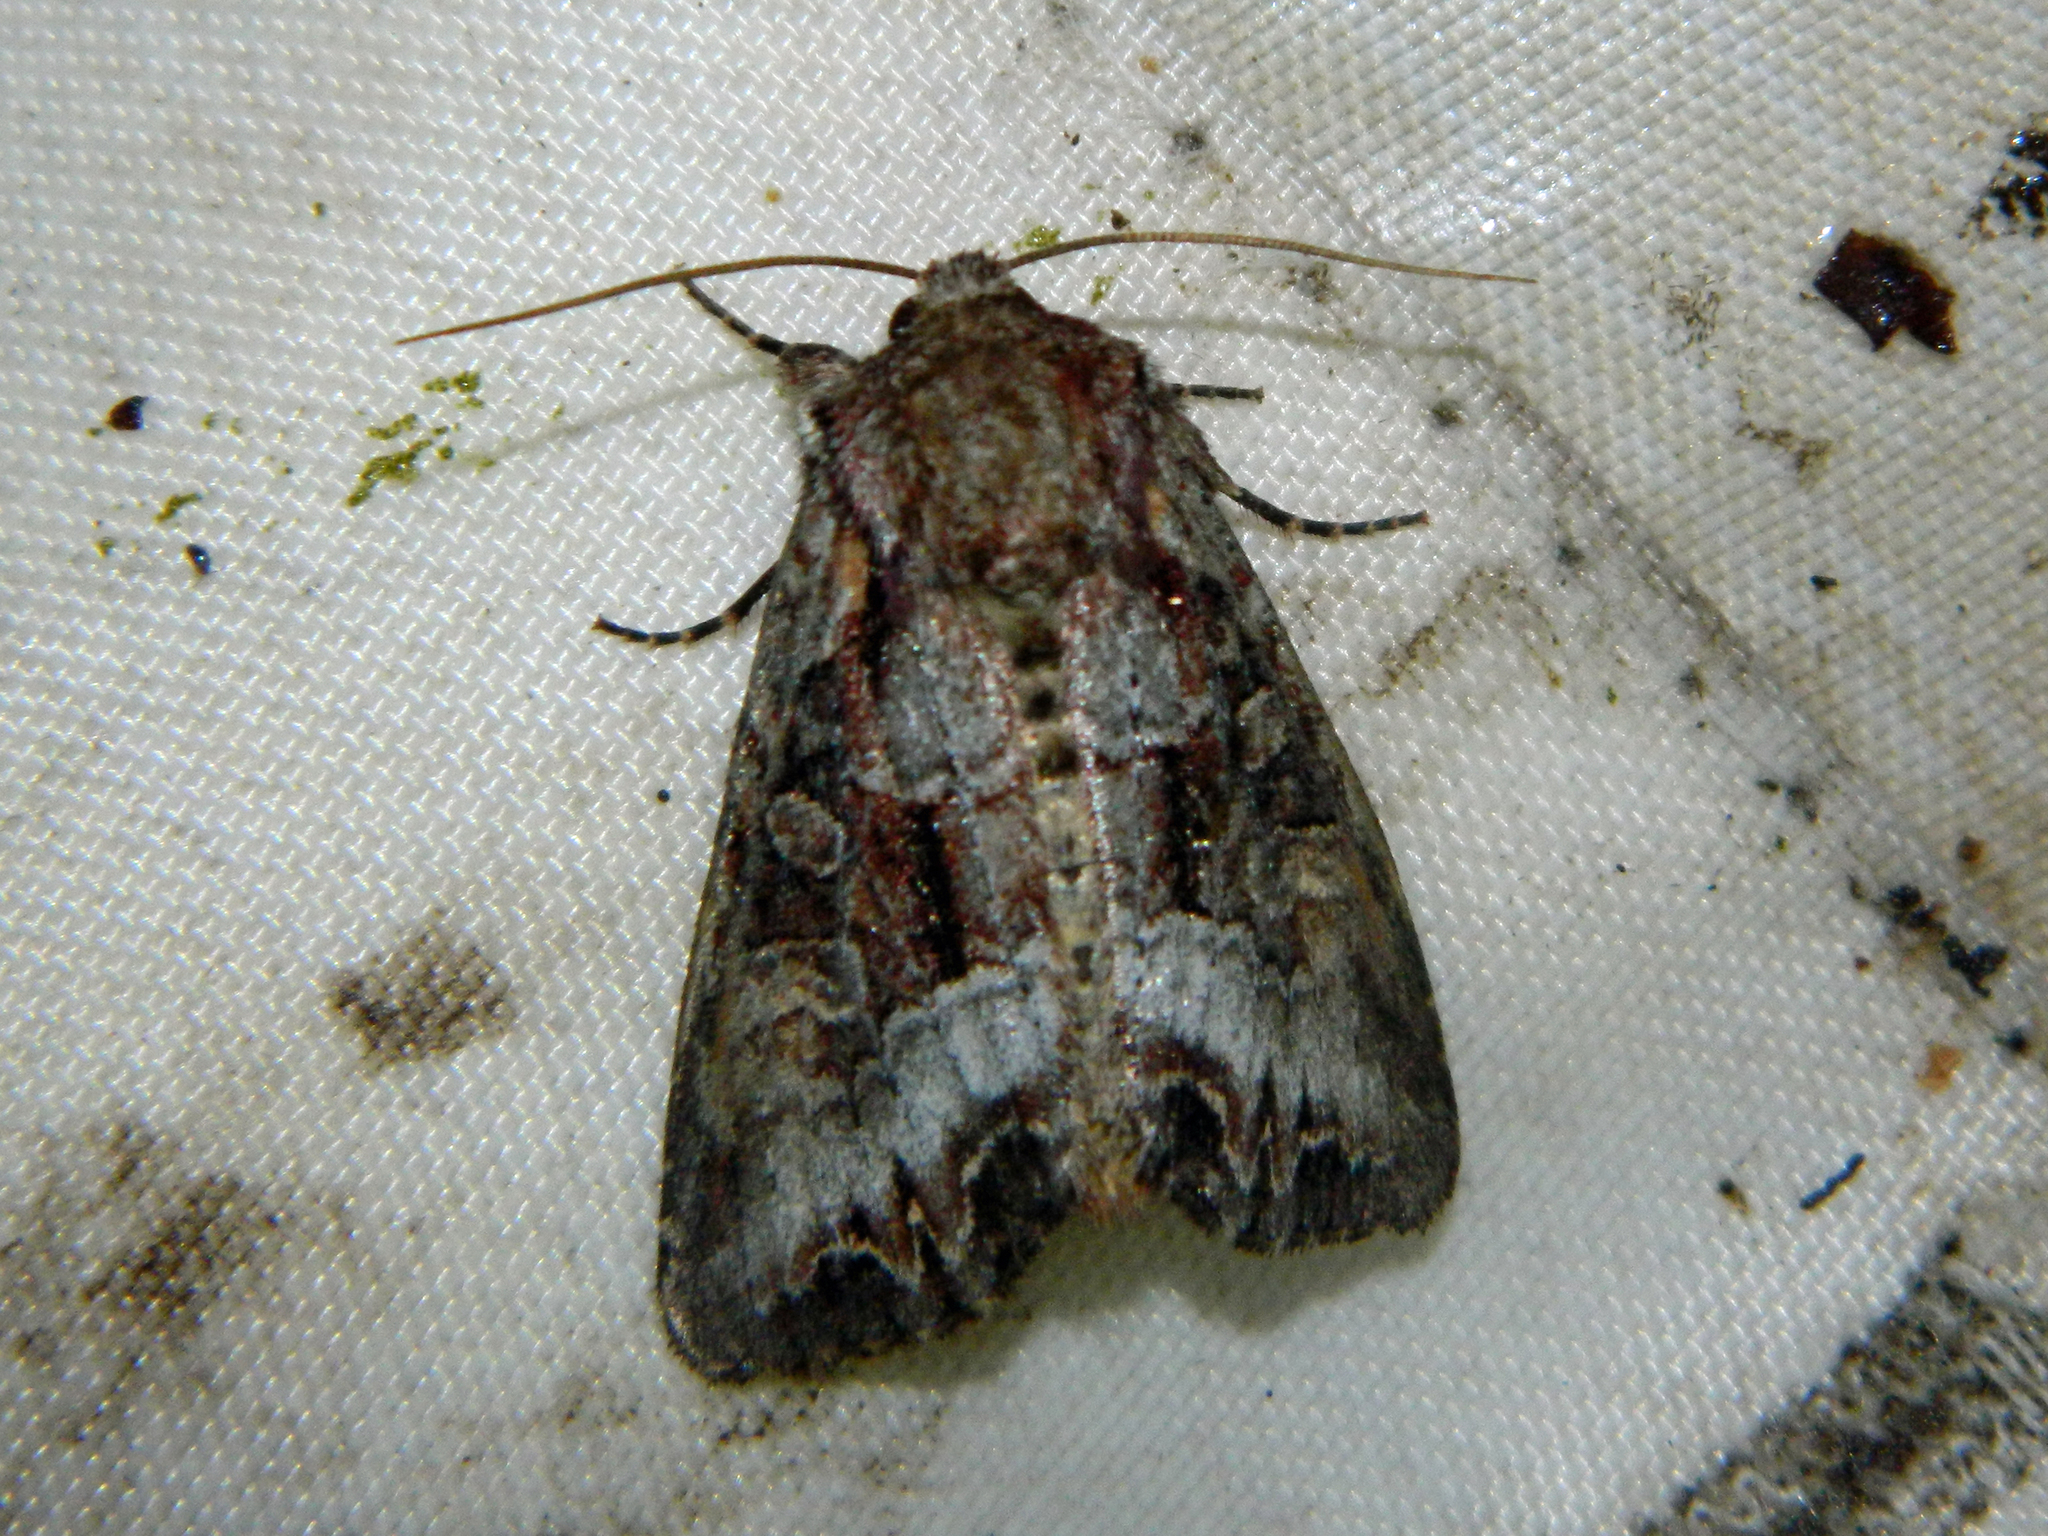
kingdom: Animalia
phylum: Arthropoda
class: Insecta
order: Lepidoptera
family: Noctuidae
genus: Lacanobia
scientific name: Lacanobia grandis
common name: Grand arches moth
